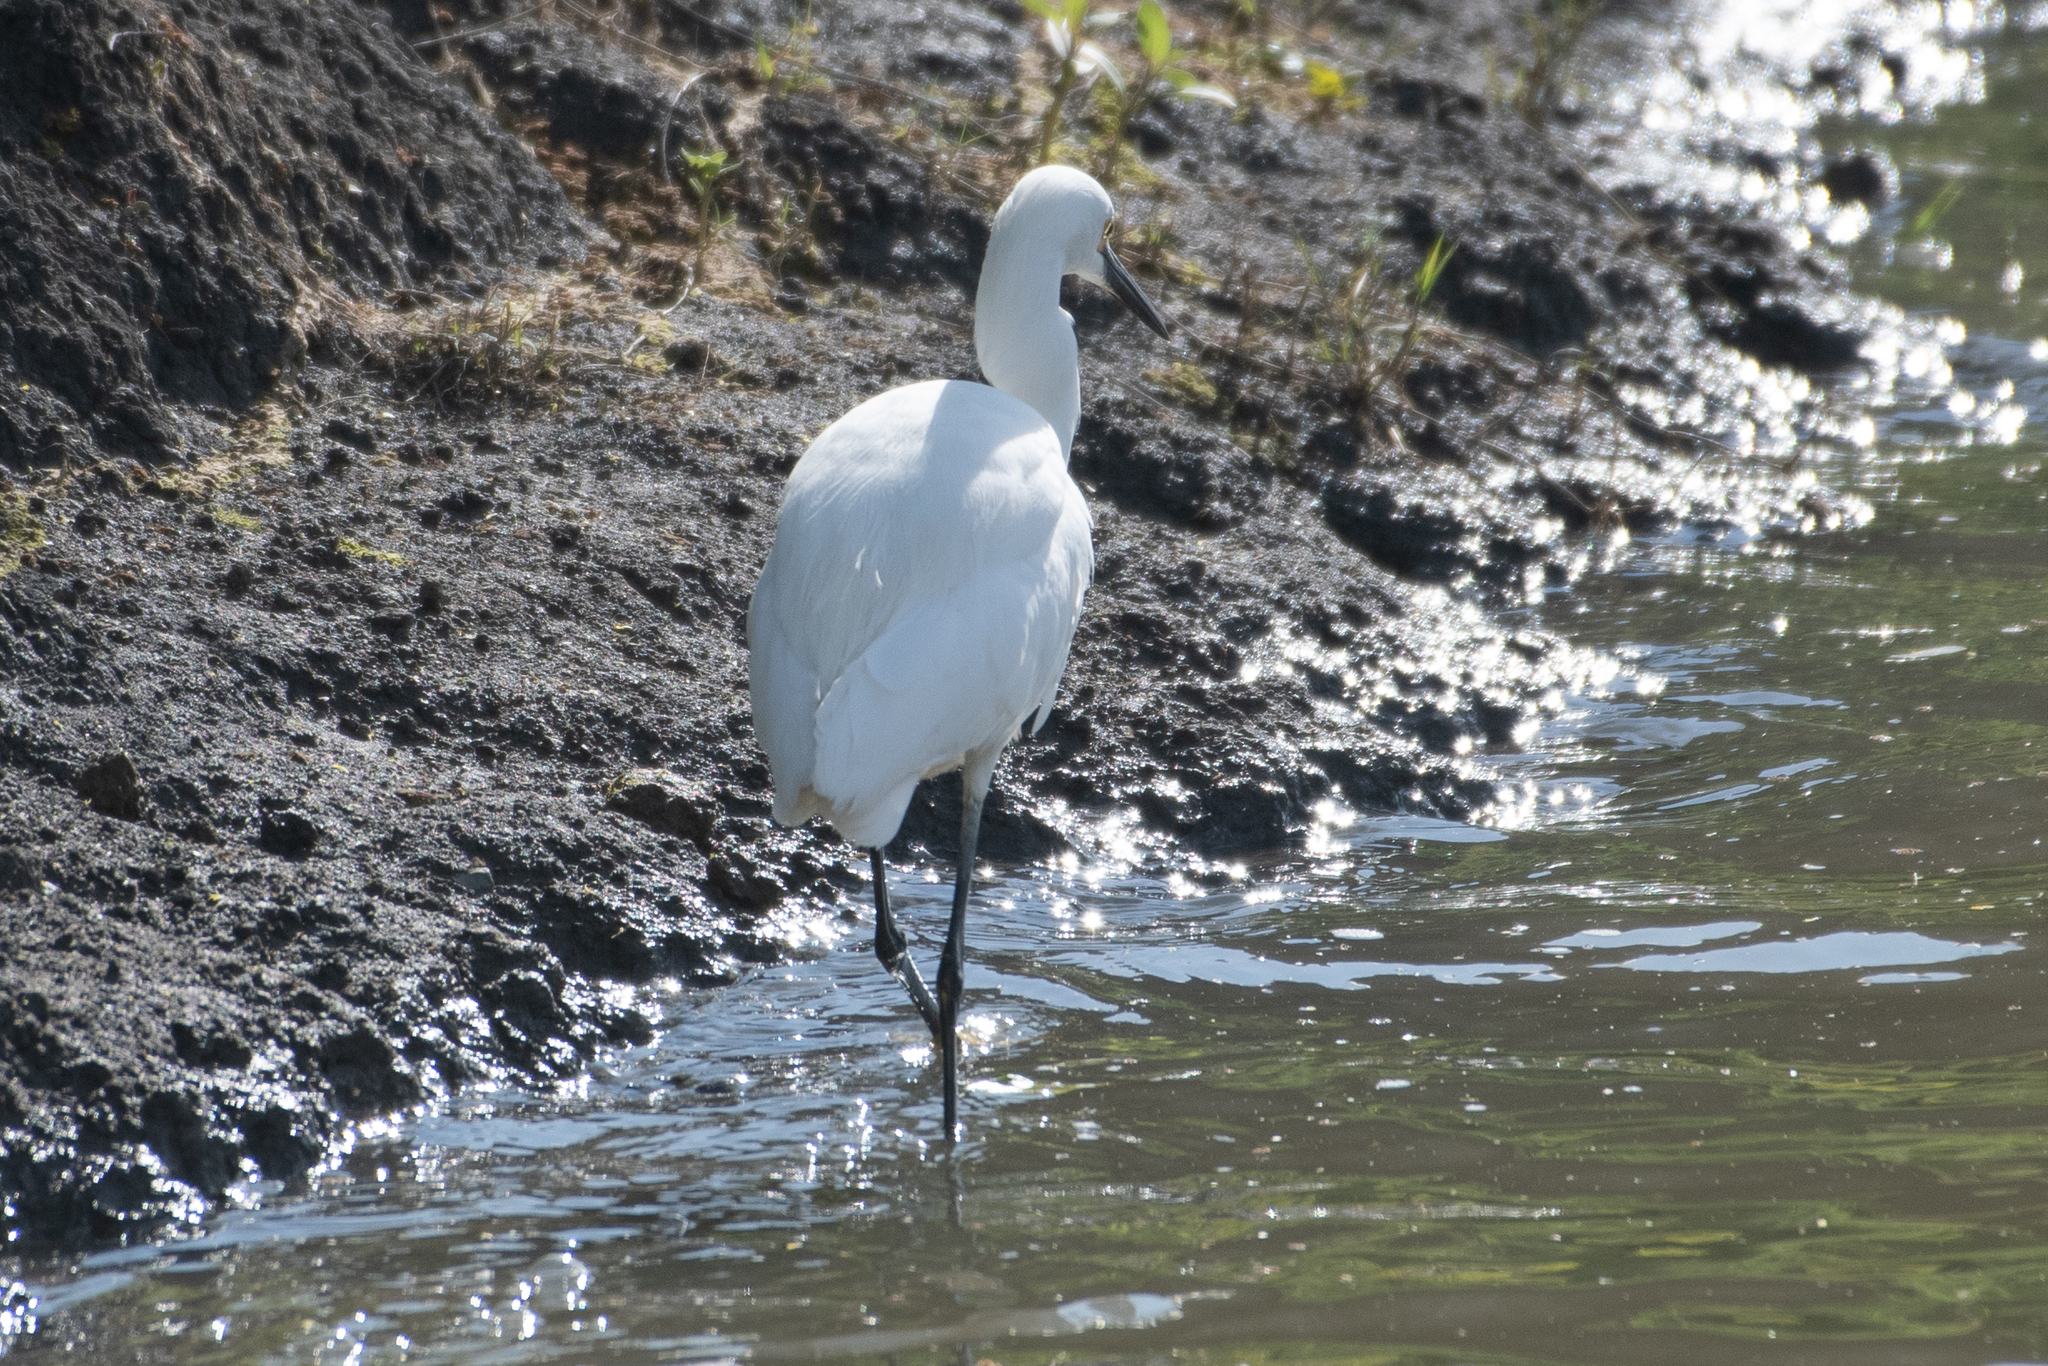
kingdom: Animalia
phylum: Chordata
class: Aves
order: Pelecaniformes
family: Ardeidae
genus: Egretta
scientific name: Egretta thula
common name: Snowy egret
